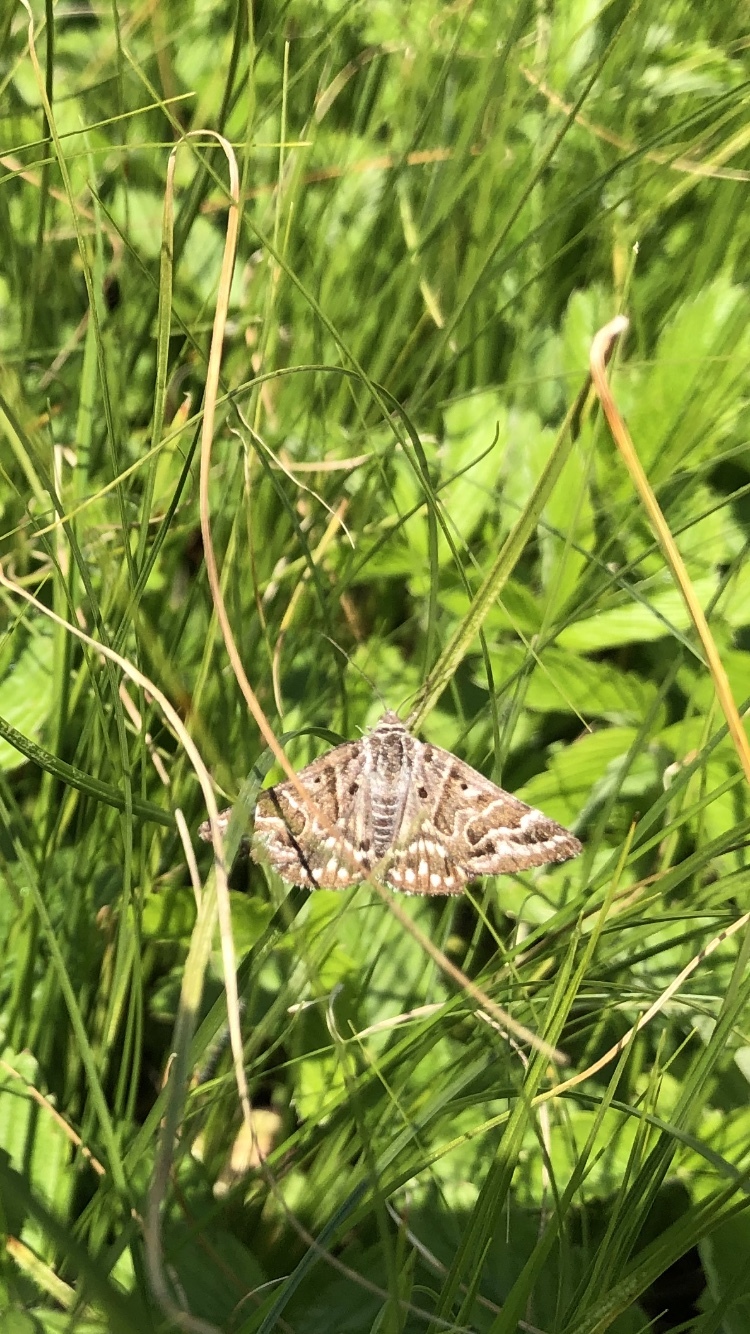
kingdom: Animalia
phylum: Arthropoda
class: Insecta
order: Lepidoptera
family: Erebidae
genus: Callistege
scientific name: Callistege mi
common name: Mother shipton
